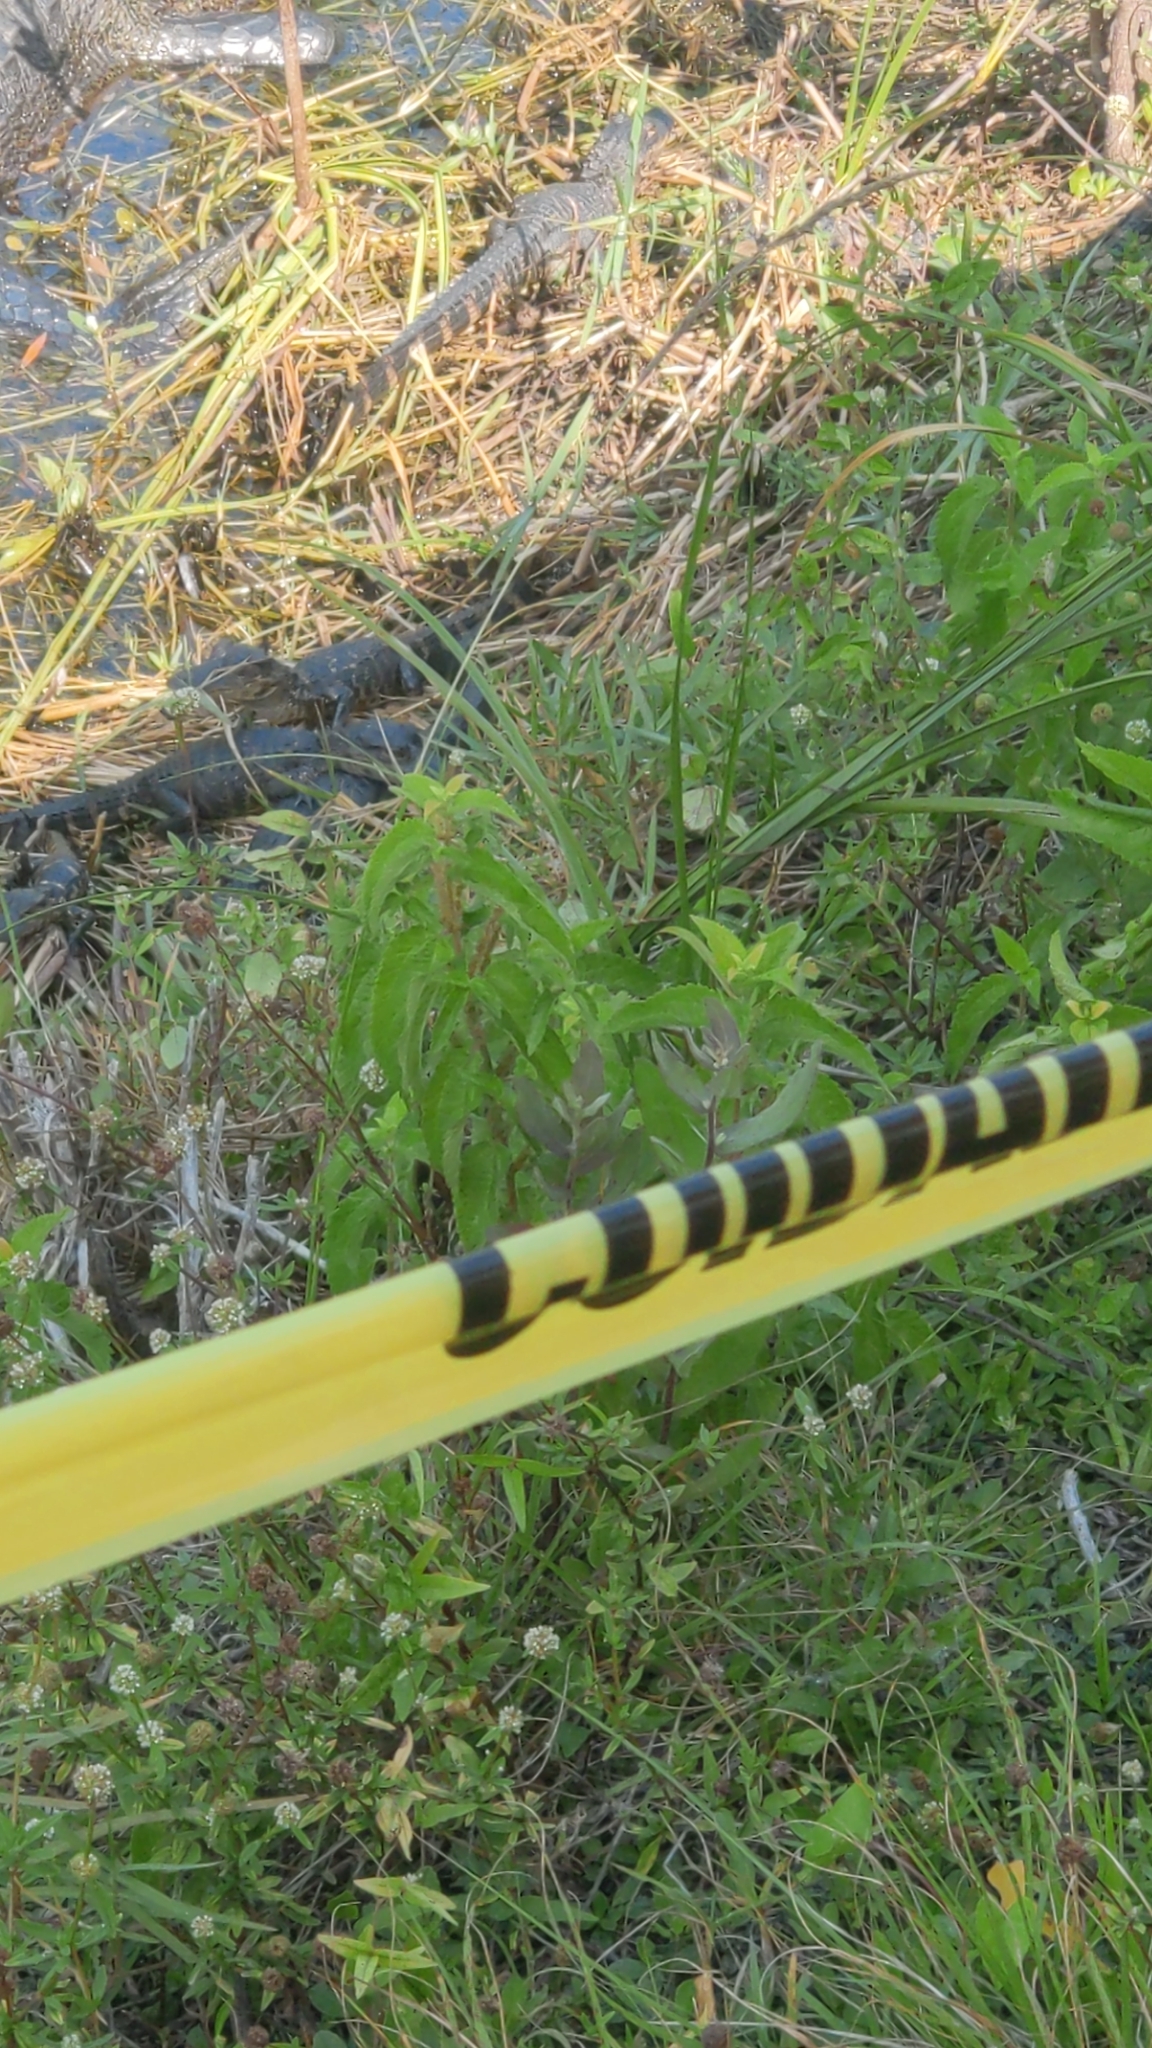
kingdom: Animalia
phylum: Chordata
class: Crocodylia
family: Alligatoridae
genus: Alligator
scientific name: Alligator mississippiensis
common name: American alligator
